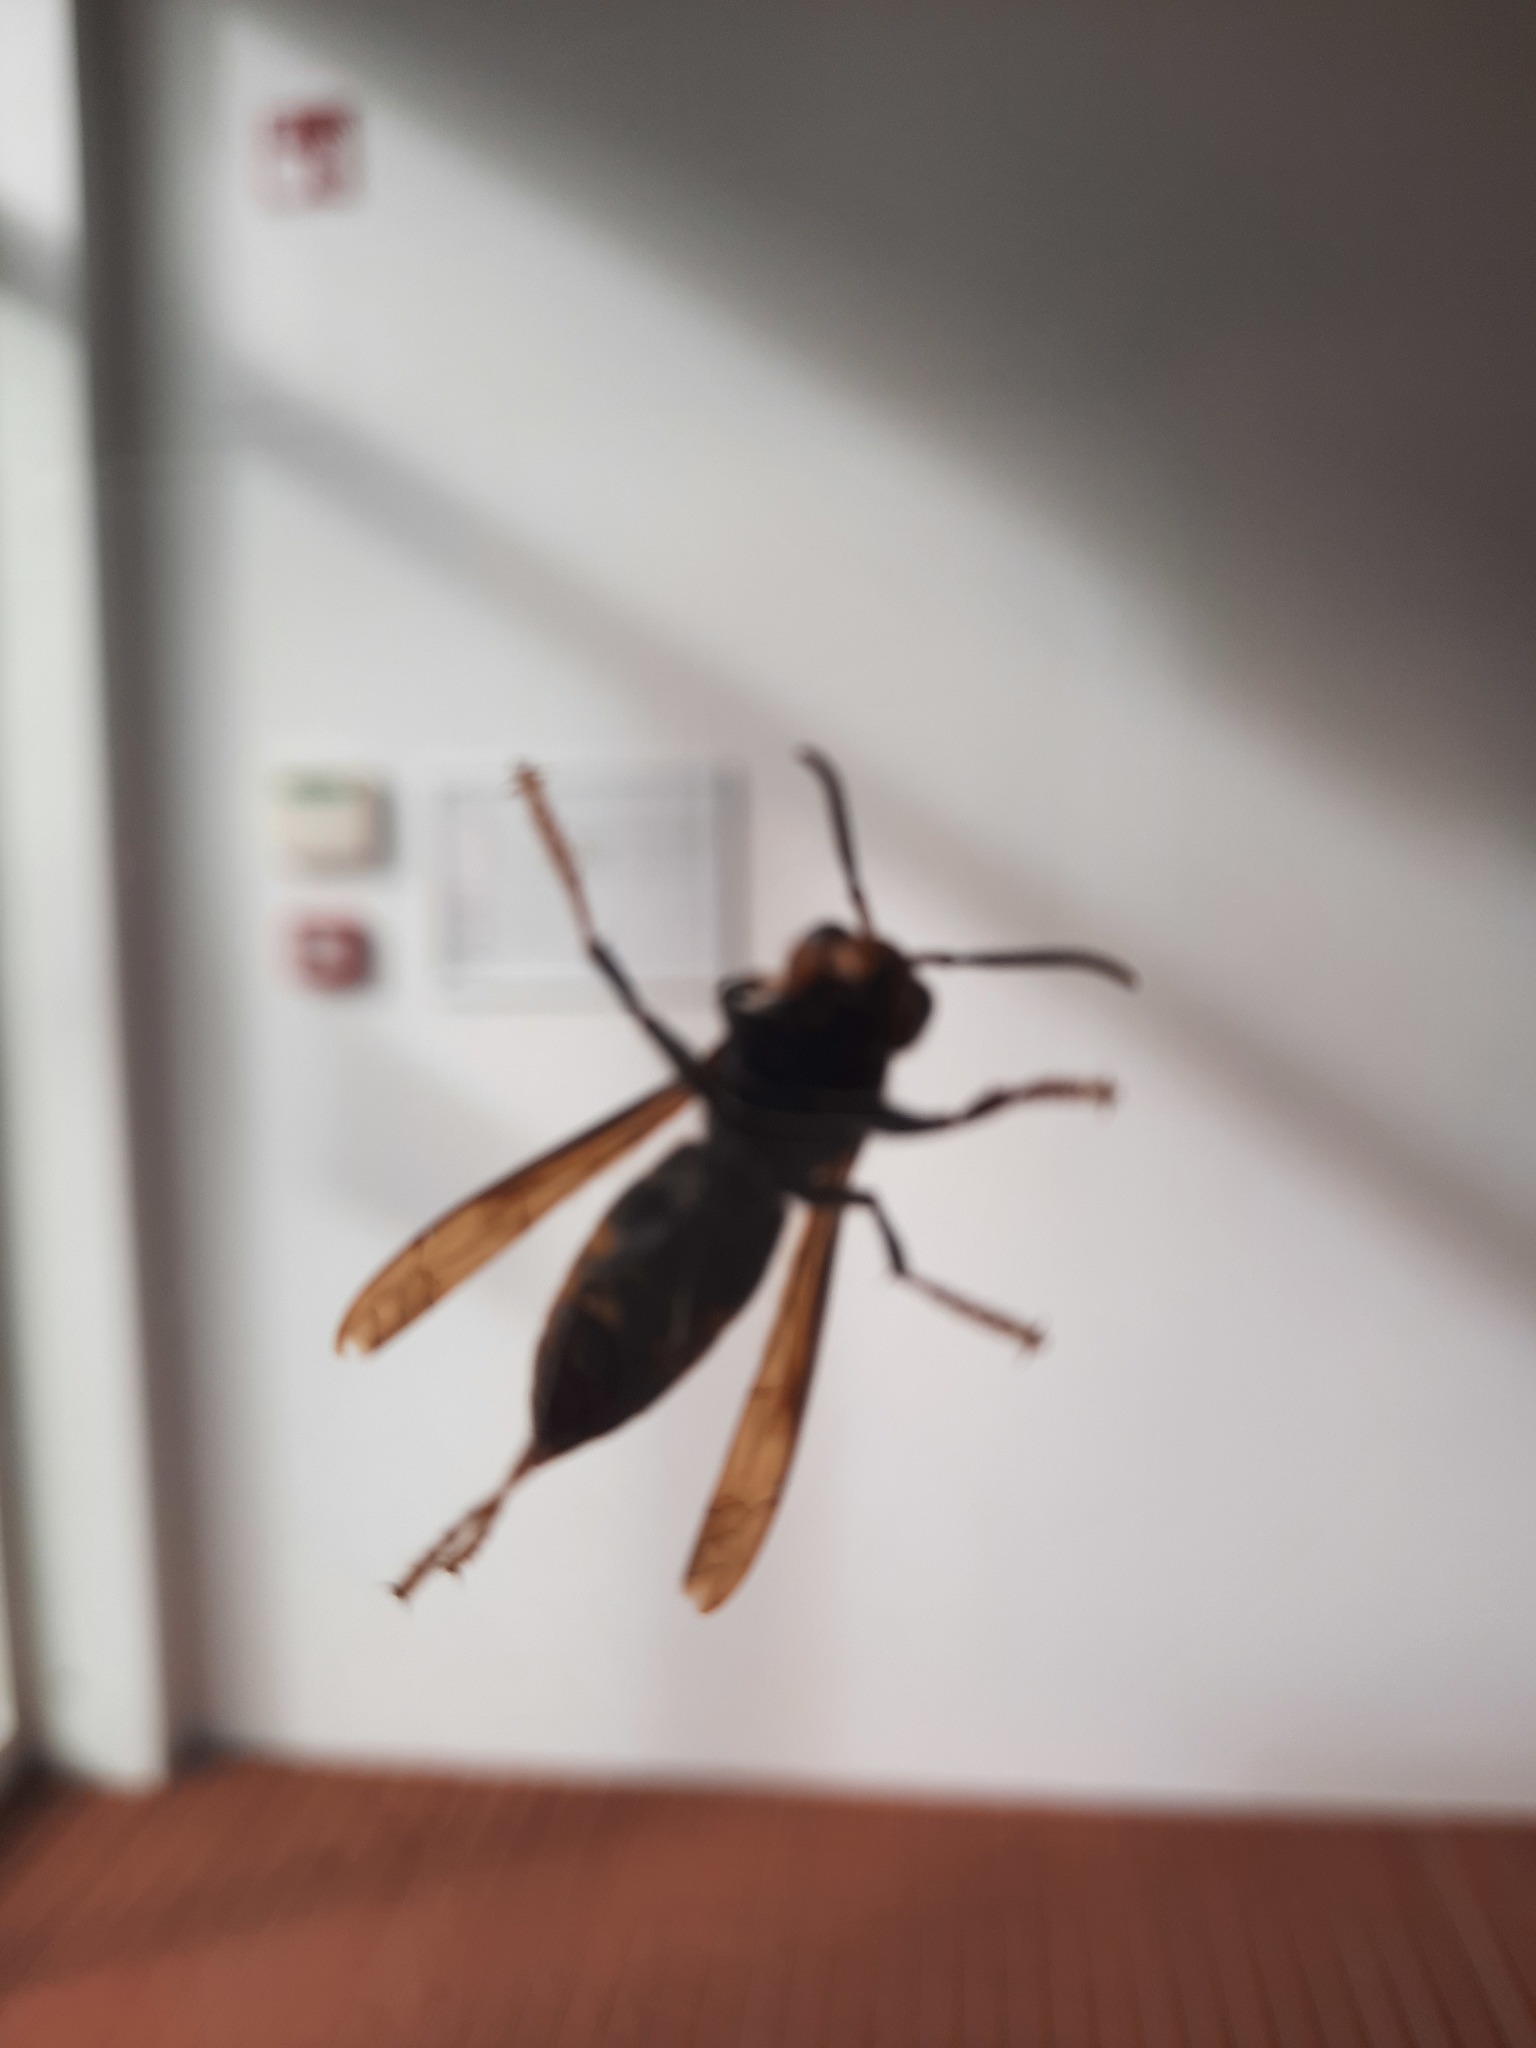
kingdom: Animalia
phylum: Arthropoda
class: Insecta
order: Hymenoptera
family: Vespidae
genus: Vespa
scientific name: Vespa velutina
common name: Asian hornet
